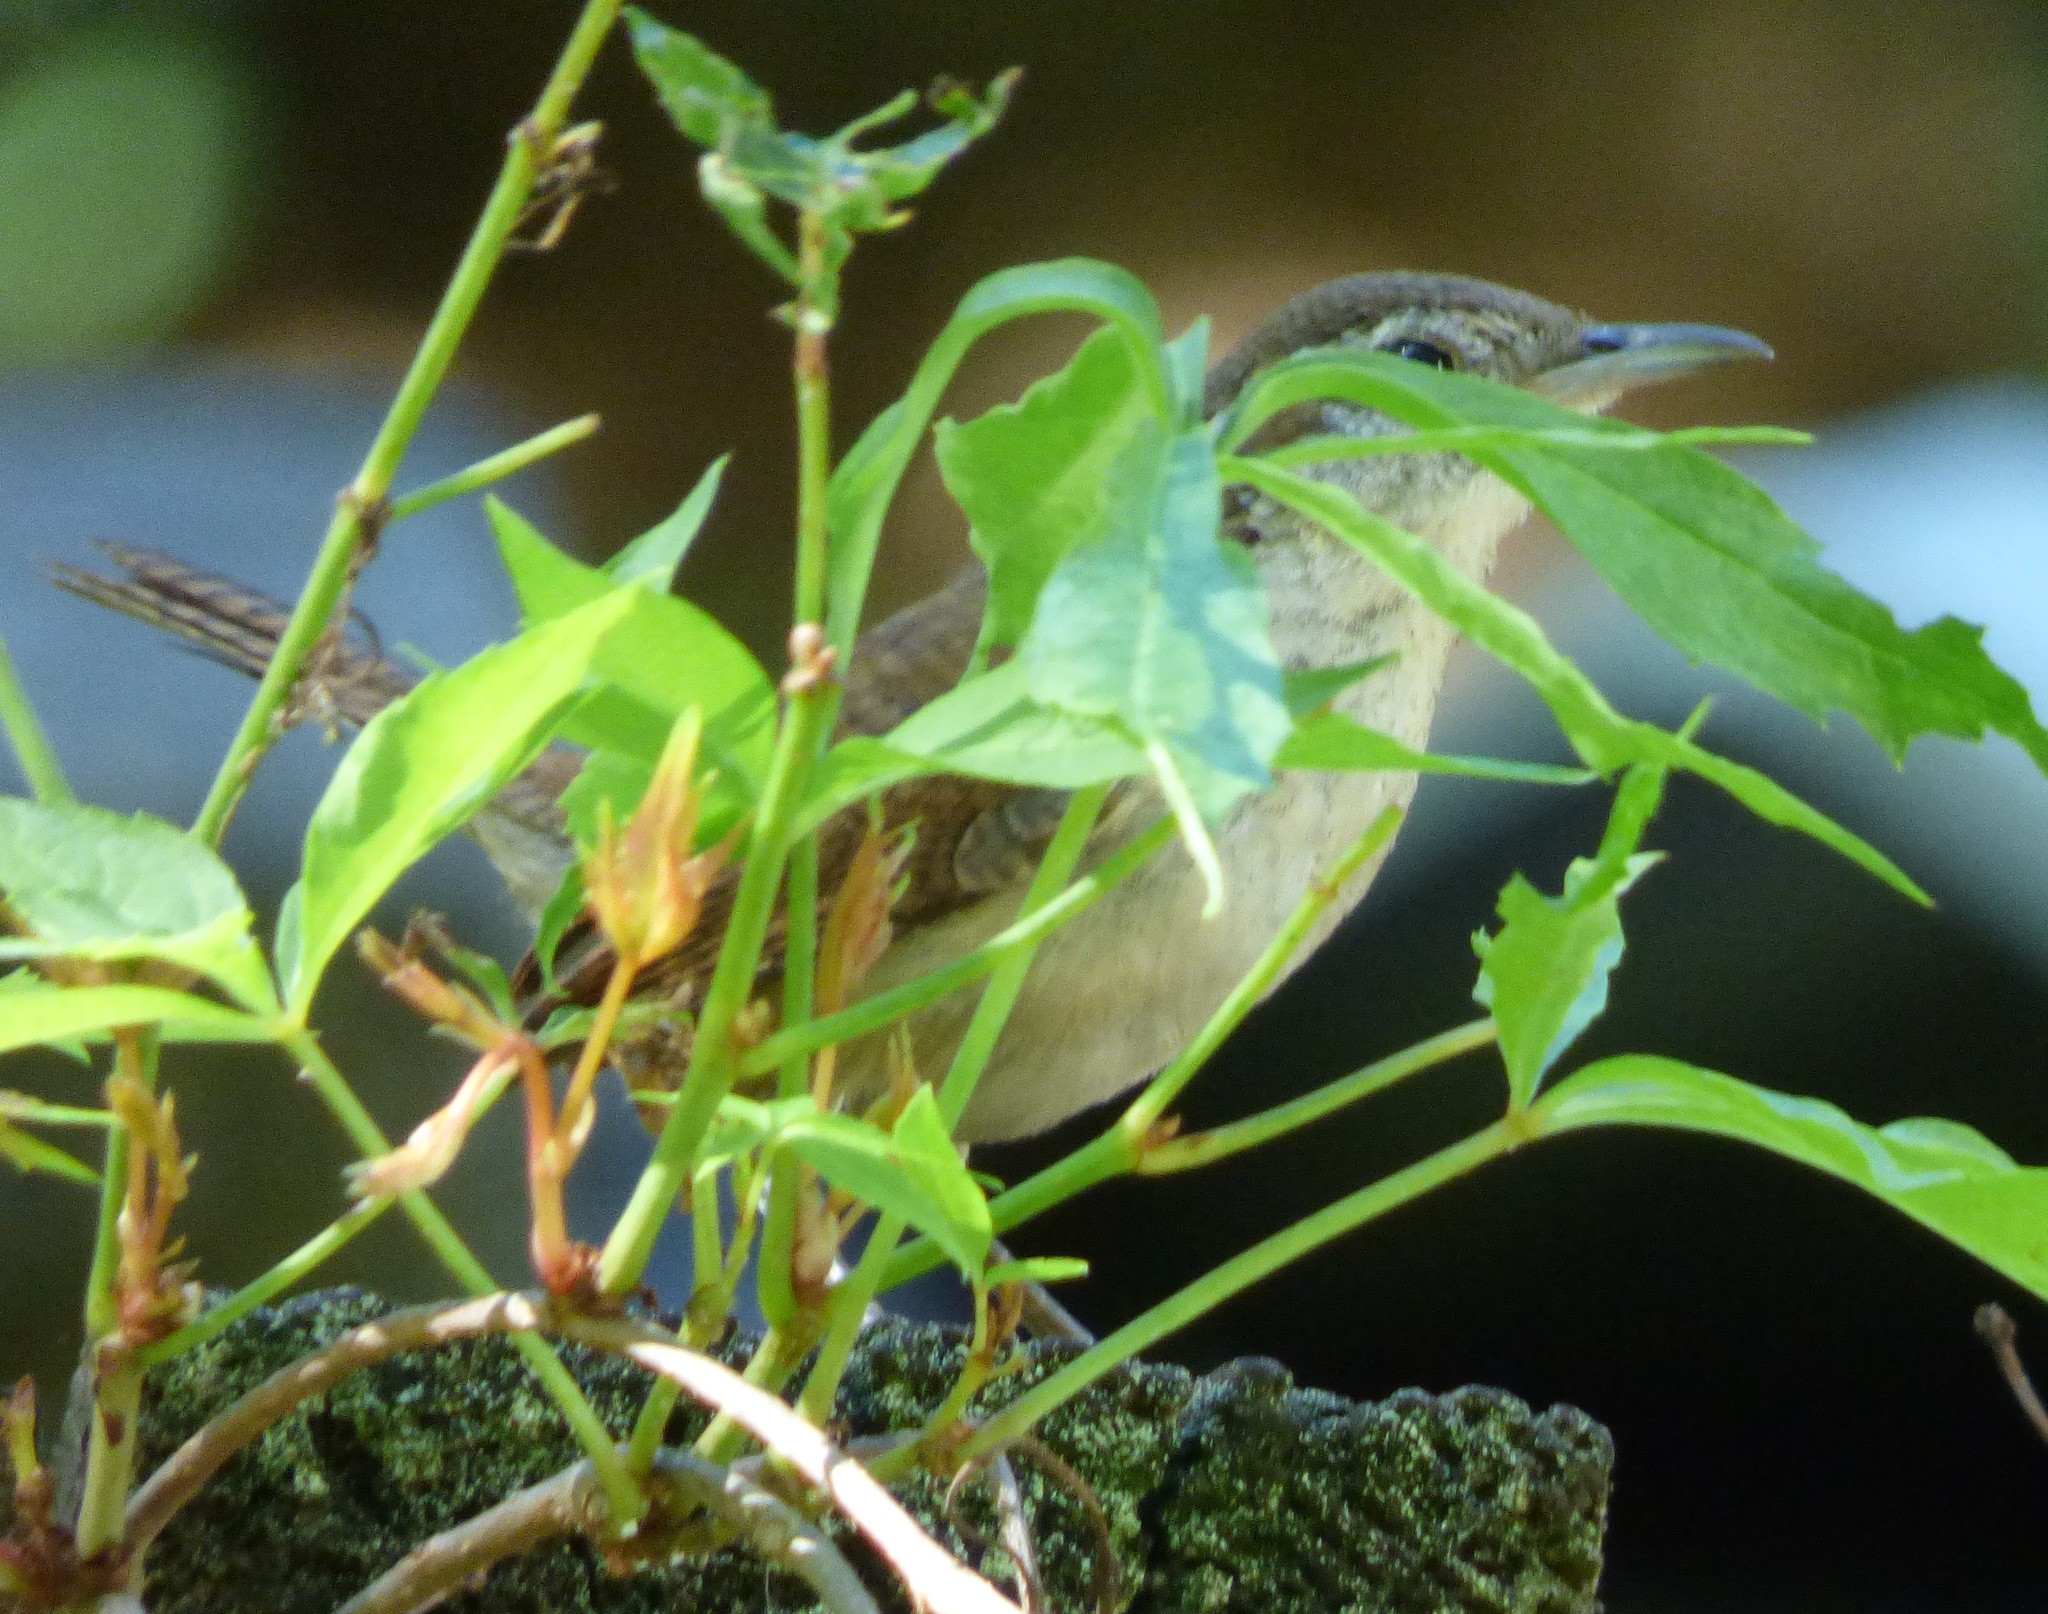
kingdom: Animalia
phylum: Chordata
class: Aves
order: Passeriformes
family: Troglodytidae
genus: Thryothorus
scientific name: Thryothorus ludovicianus
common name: Carolina wren
